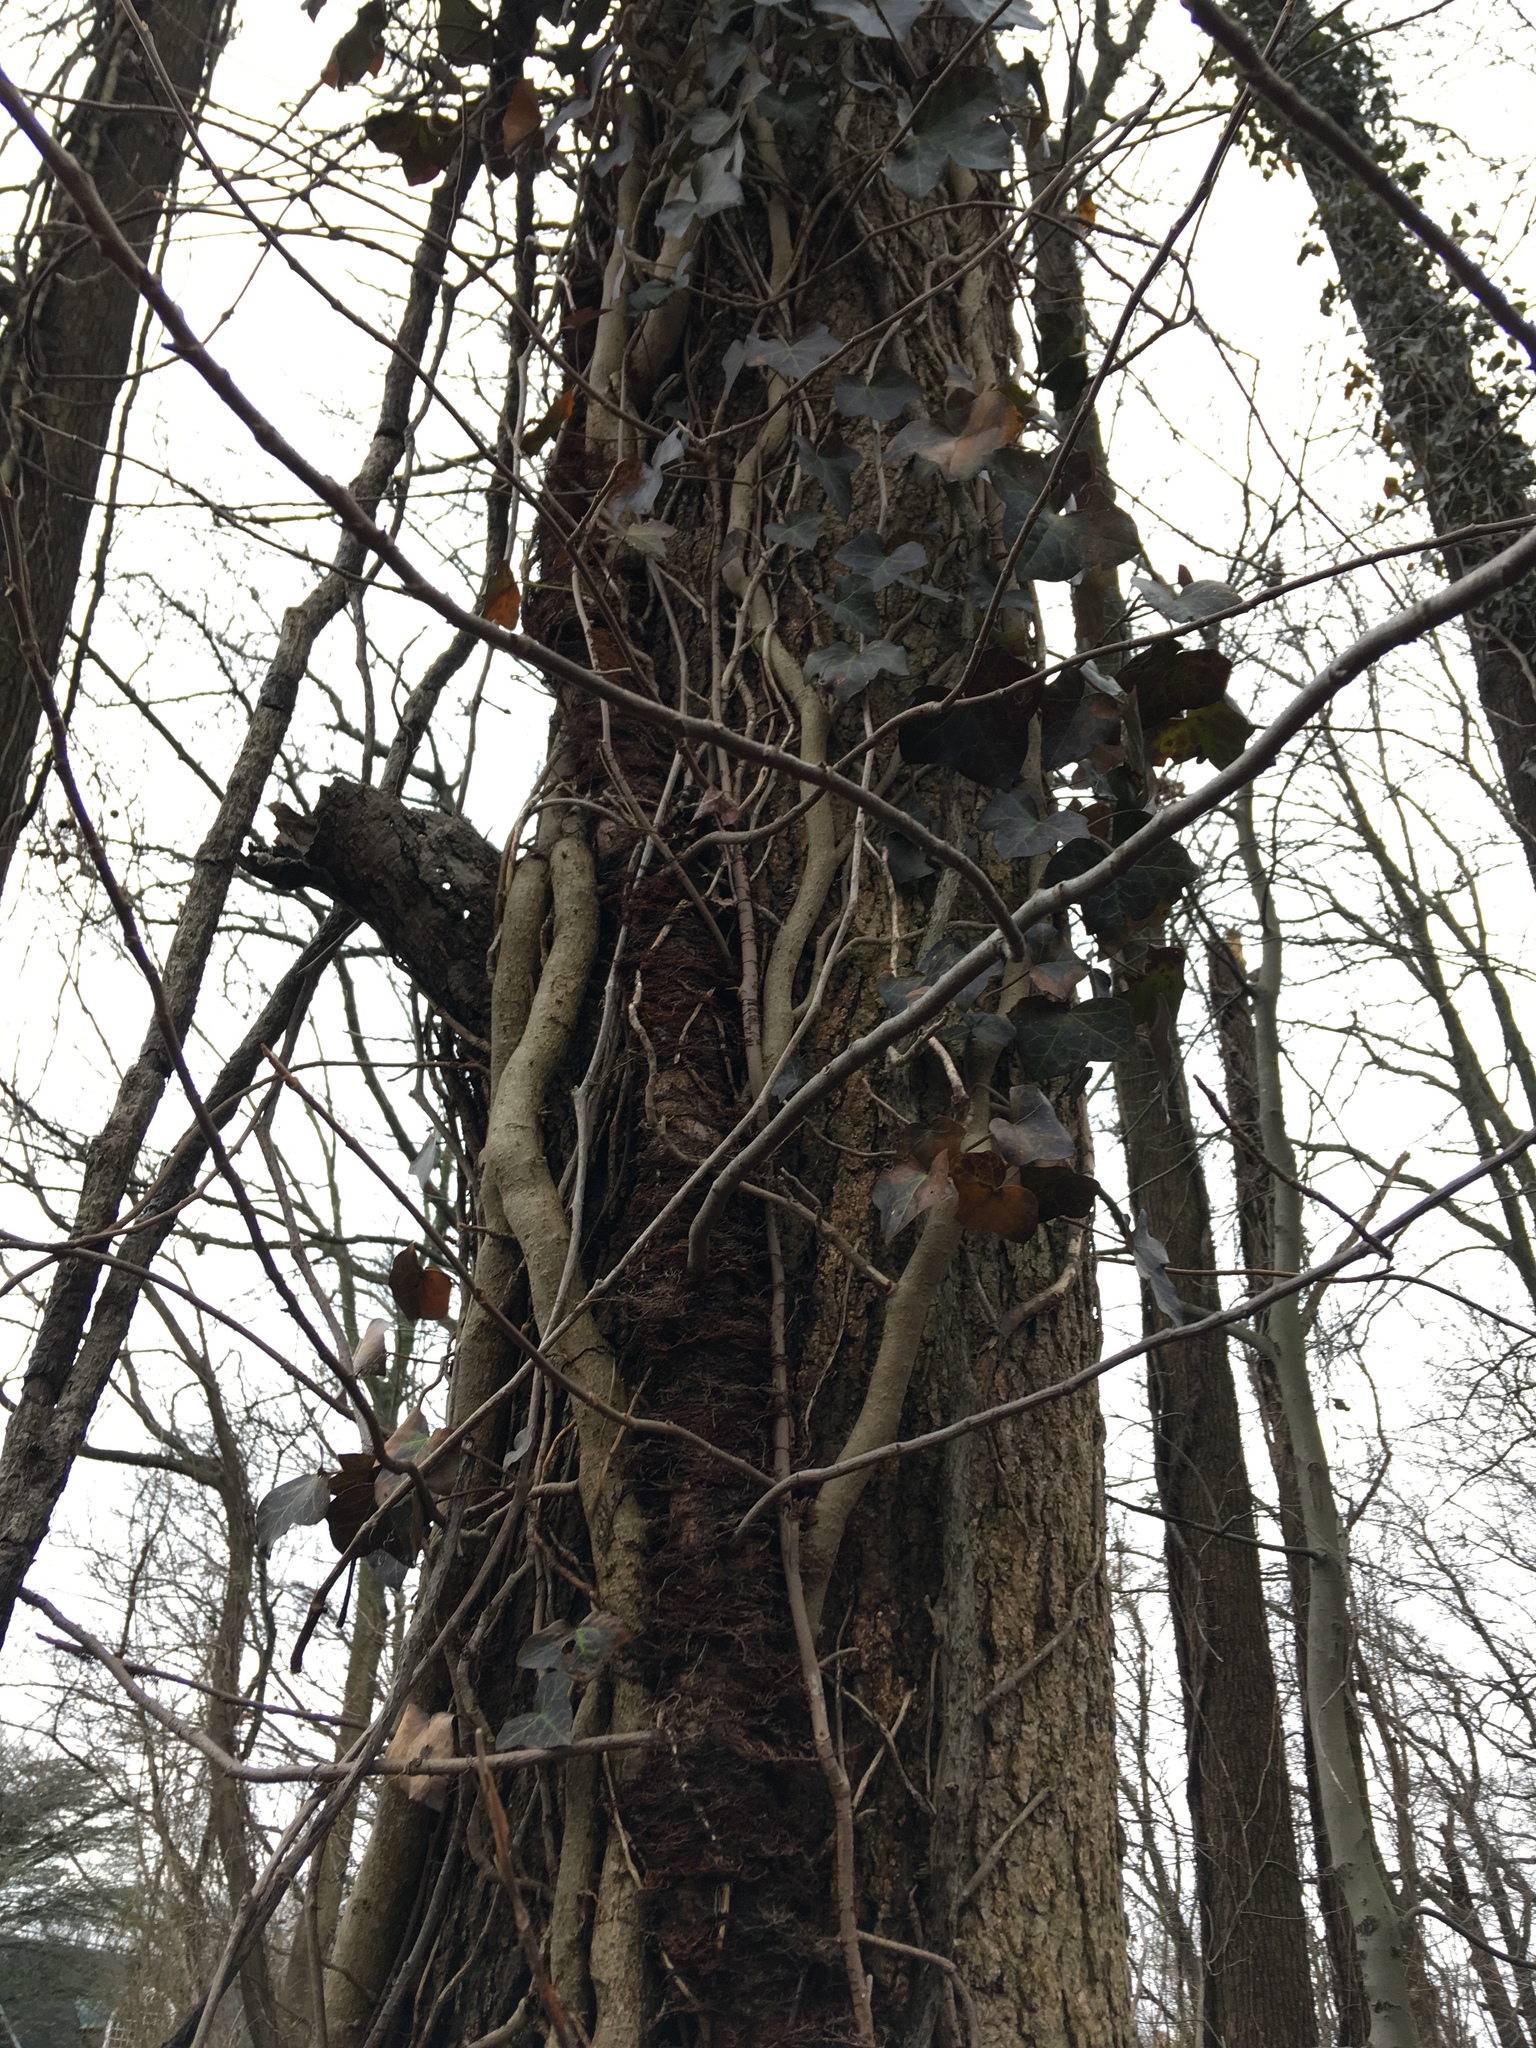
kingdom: Plantae
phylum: Tracheophyta
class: Magnoliopsida
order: Apiales
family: Araliaceae
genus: Hedera
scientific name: Hedera helix
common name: Ivy
